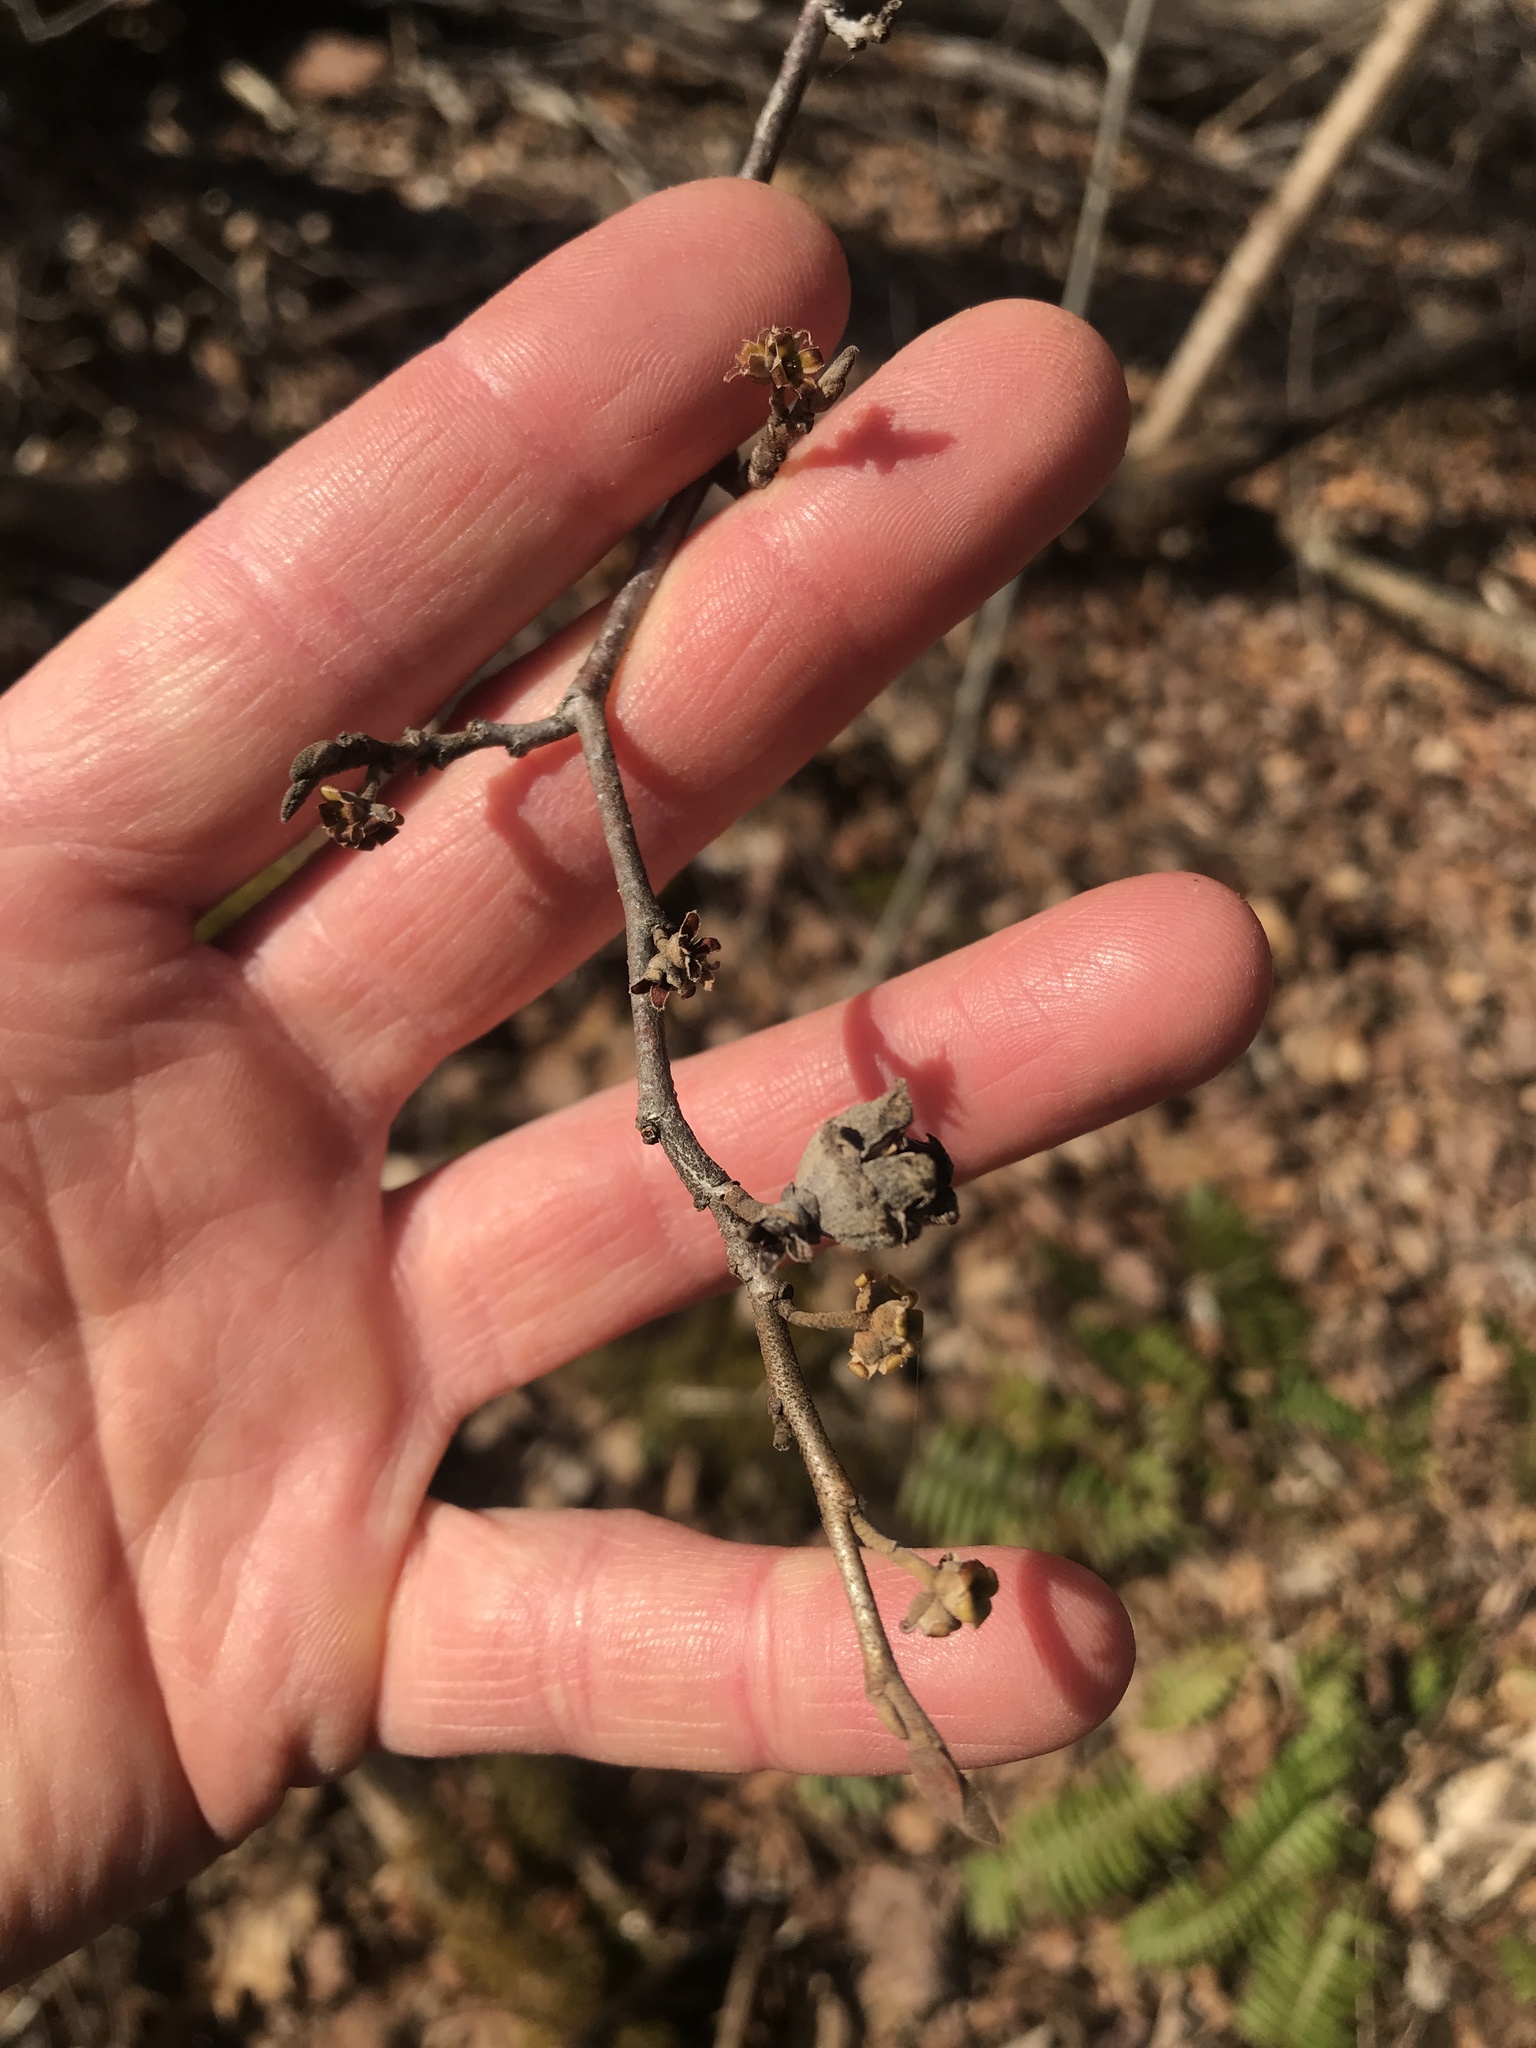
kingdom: Plantae
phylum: Tracheophyta
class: Magnoliopsida
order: Saxifragales
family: Hamamelidaceae
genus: Hamamelis
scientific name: Hamamelis virginiana
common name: Witch-hazel
